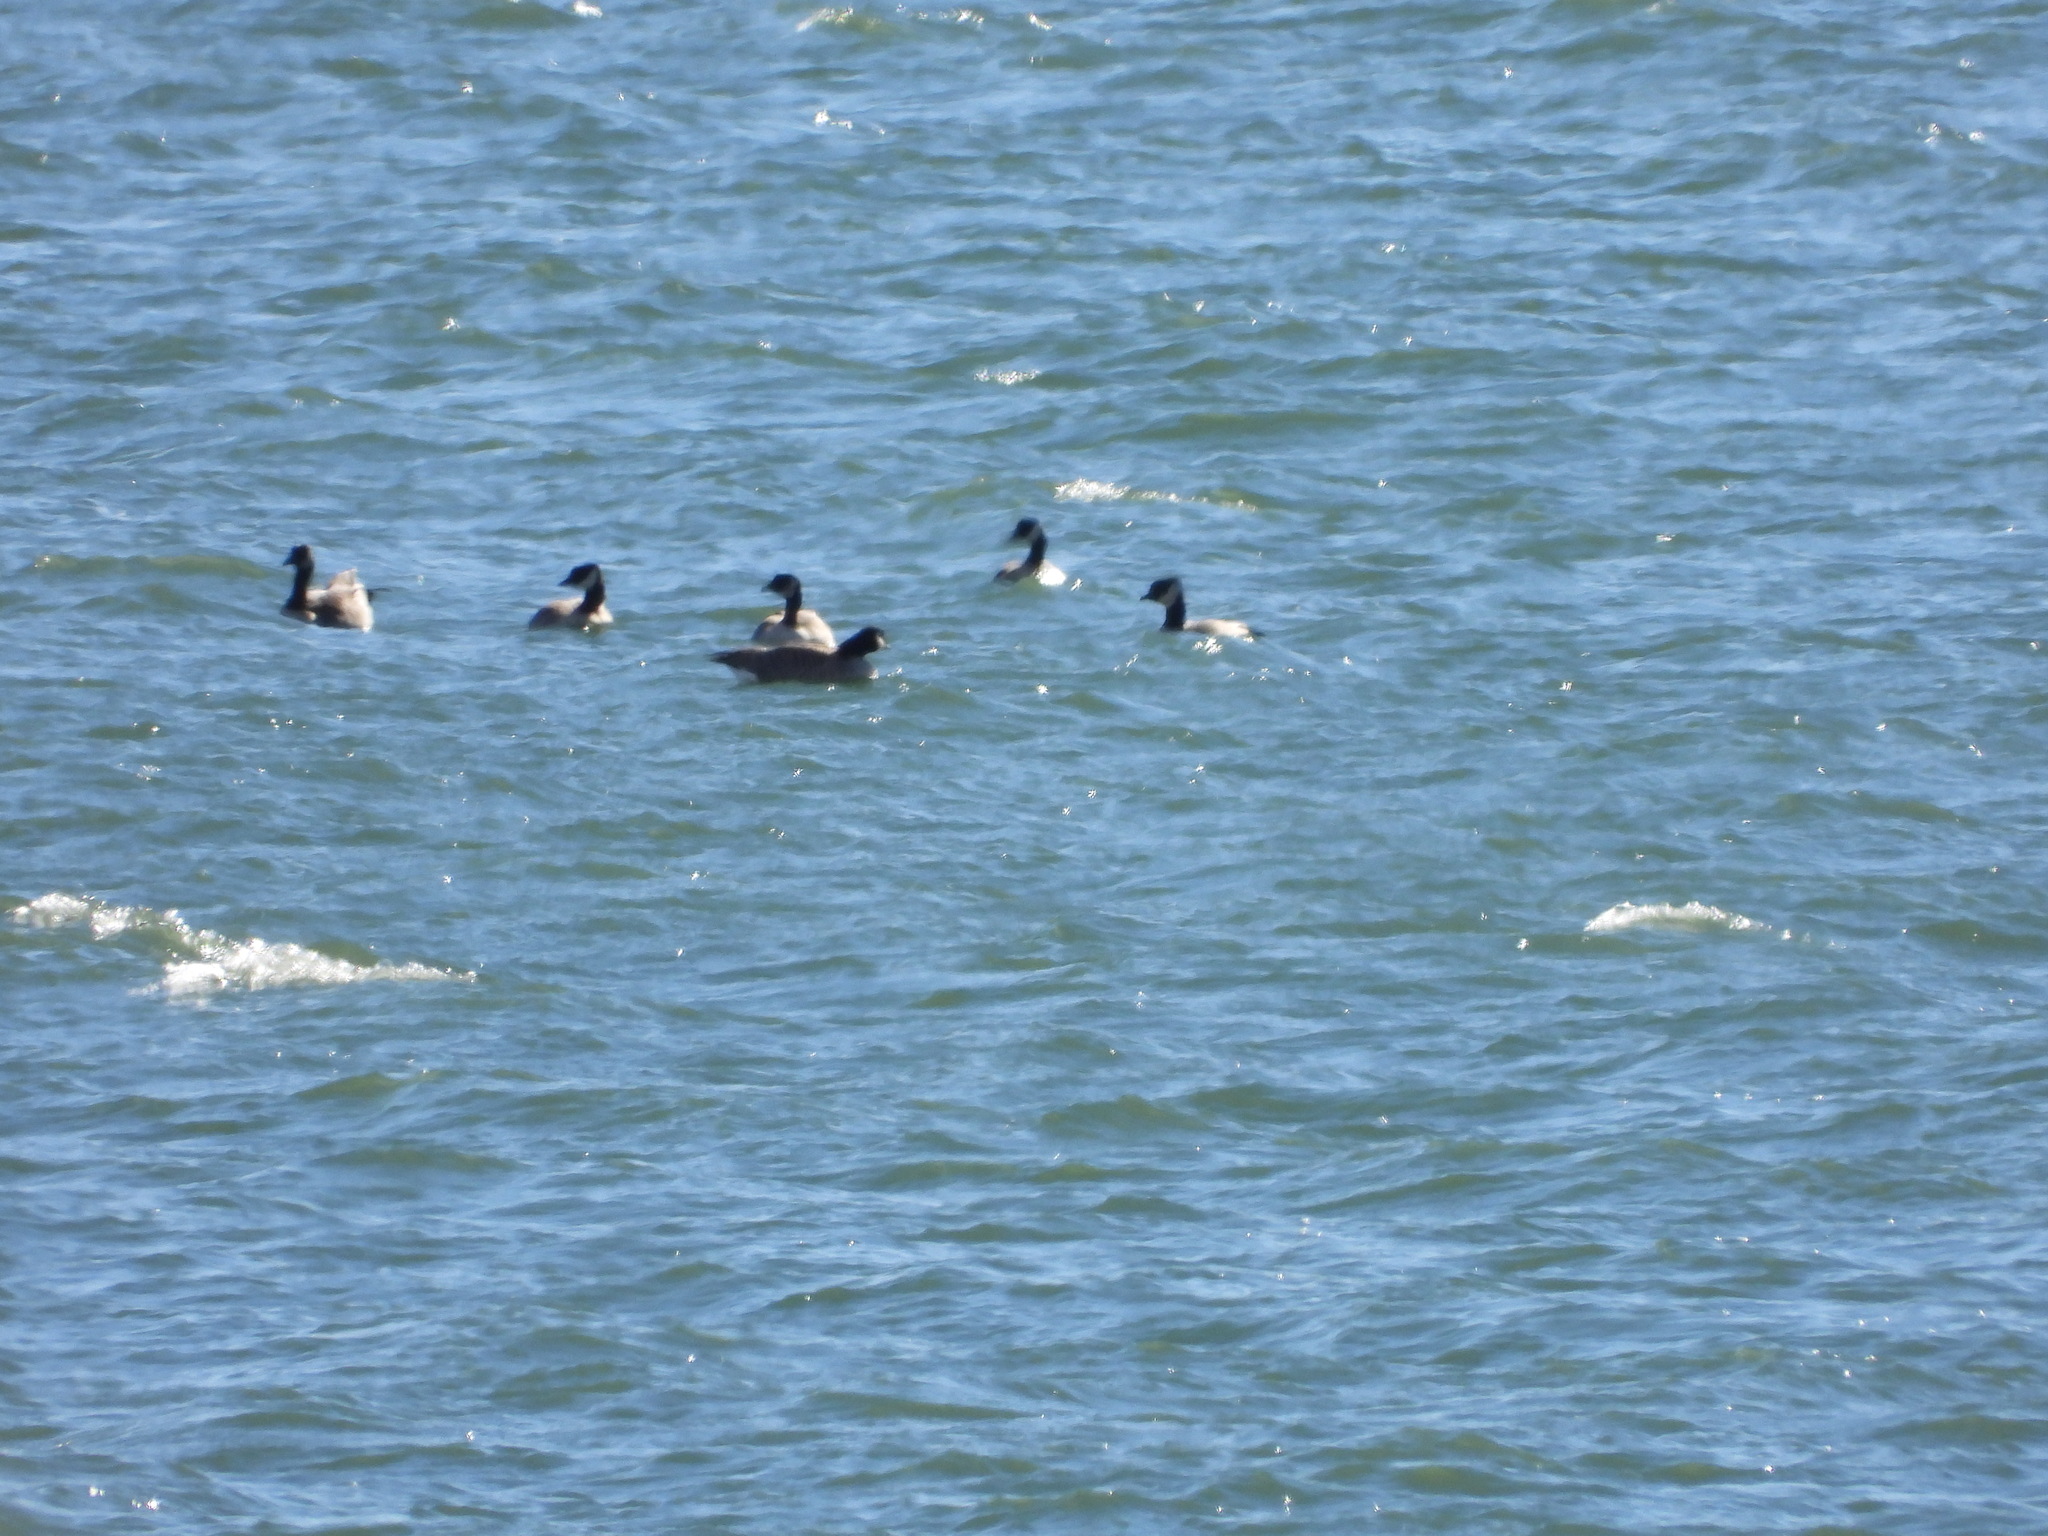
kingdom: Animalia
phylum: Chordata
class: Aves
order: Anseriformes
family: Anatidae
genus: Branta
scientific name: Branta hutchinsii
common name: Cackling goose
